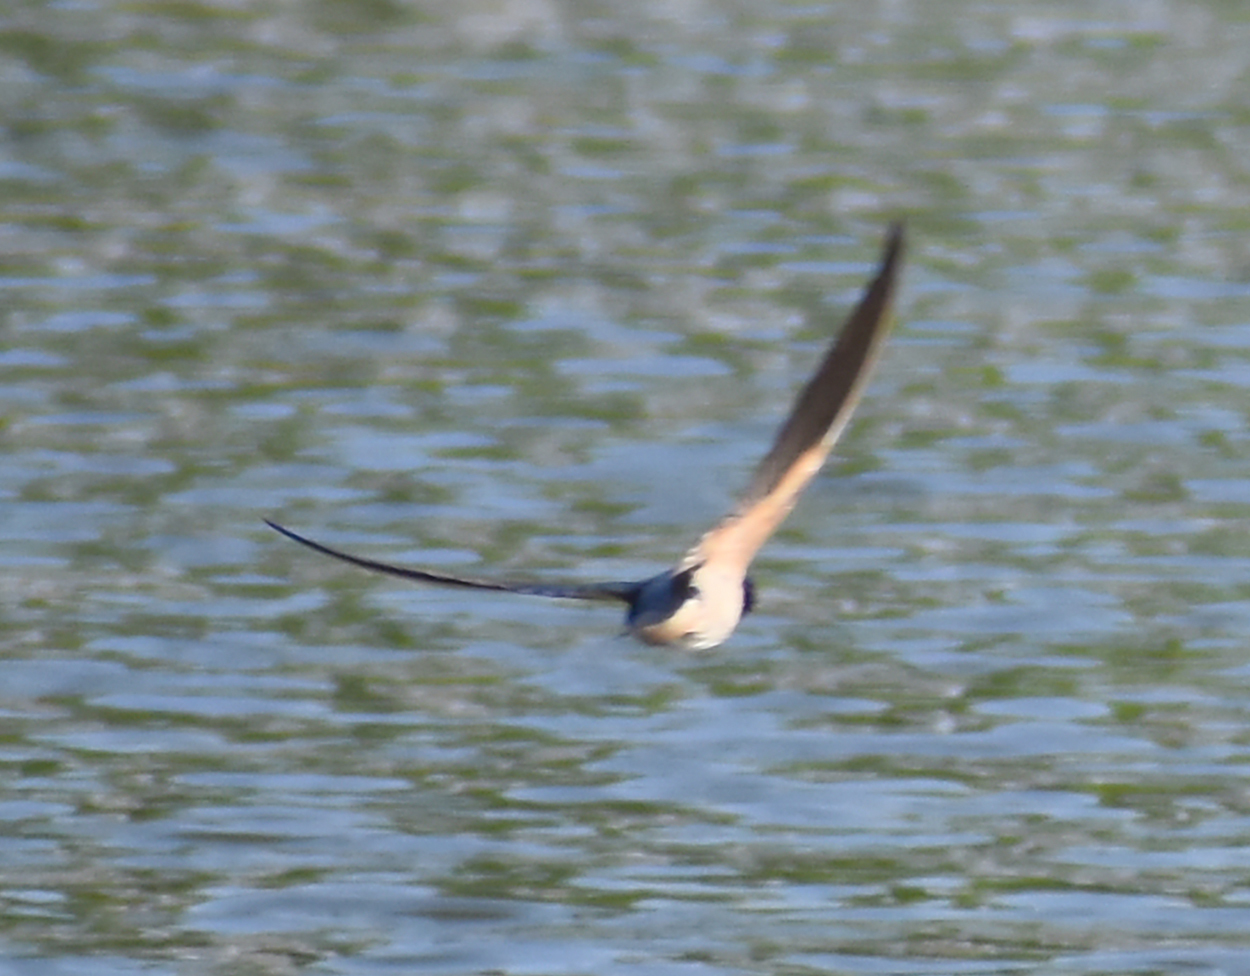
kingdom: Animalia
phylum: Chordata
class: Aves
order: Passeriformes
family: Hirundinidae
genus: Delichon
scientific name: Delichon urbicum
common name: Common house martin
